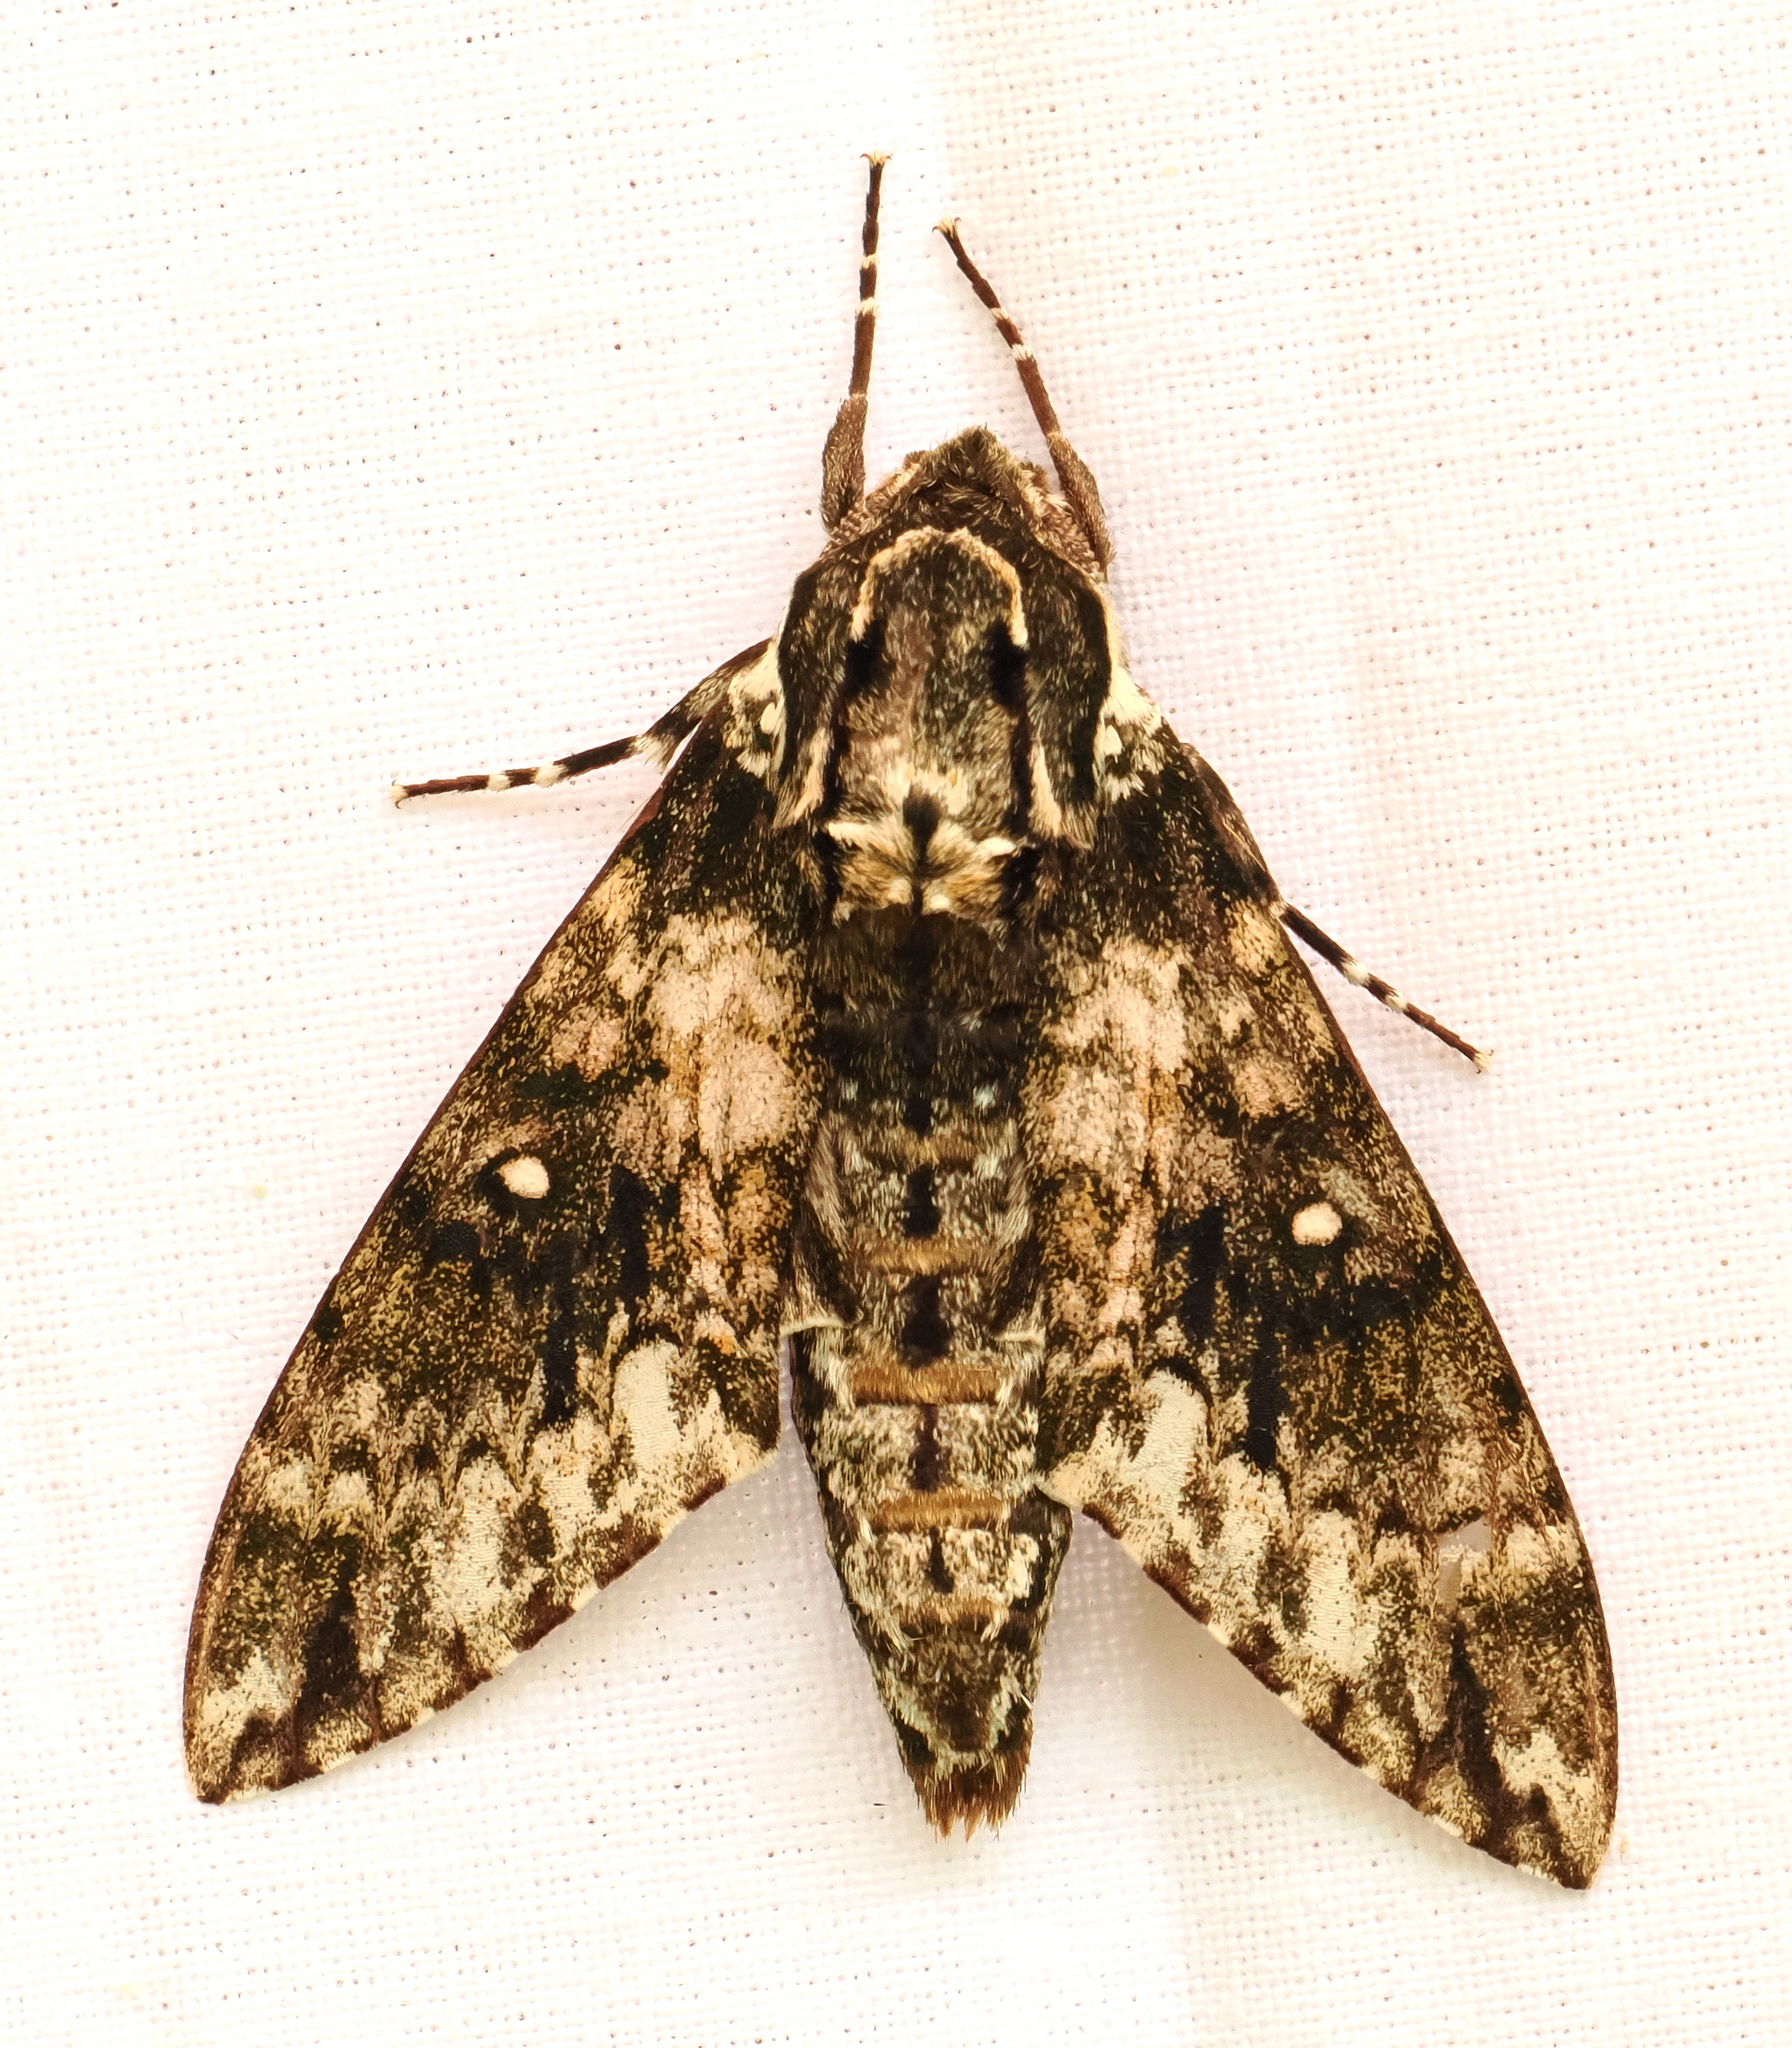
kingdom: Animalia
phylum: Arthropoda
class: Insecta
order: Lepidoptera
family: Sphingidae
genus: Dolbina
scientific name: Dolbina inexacta
